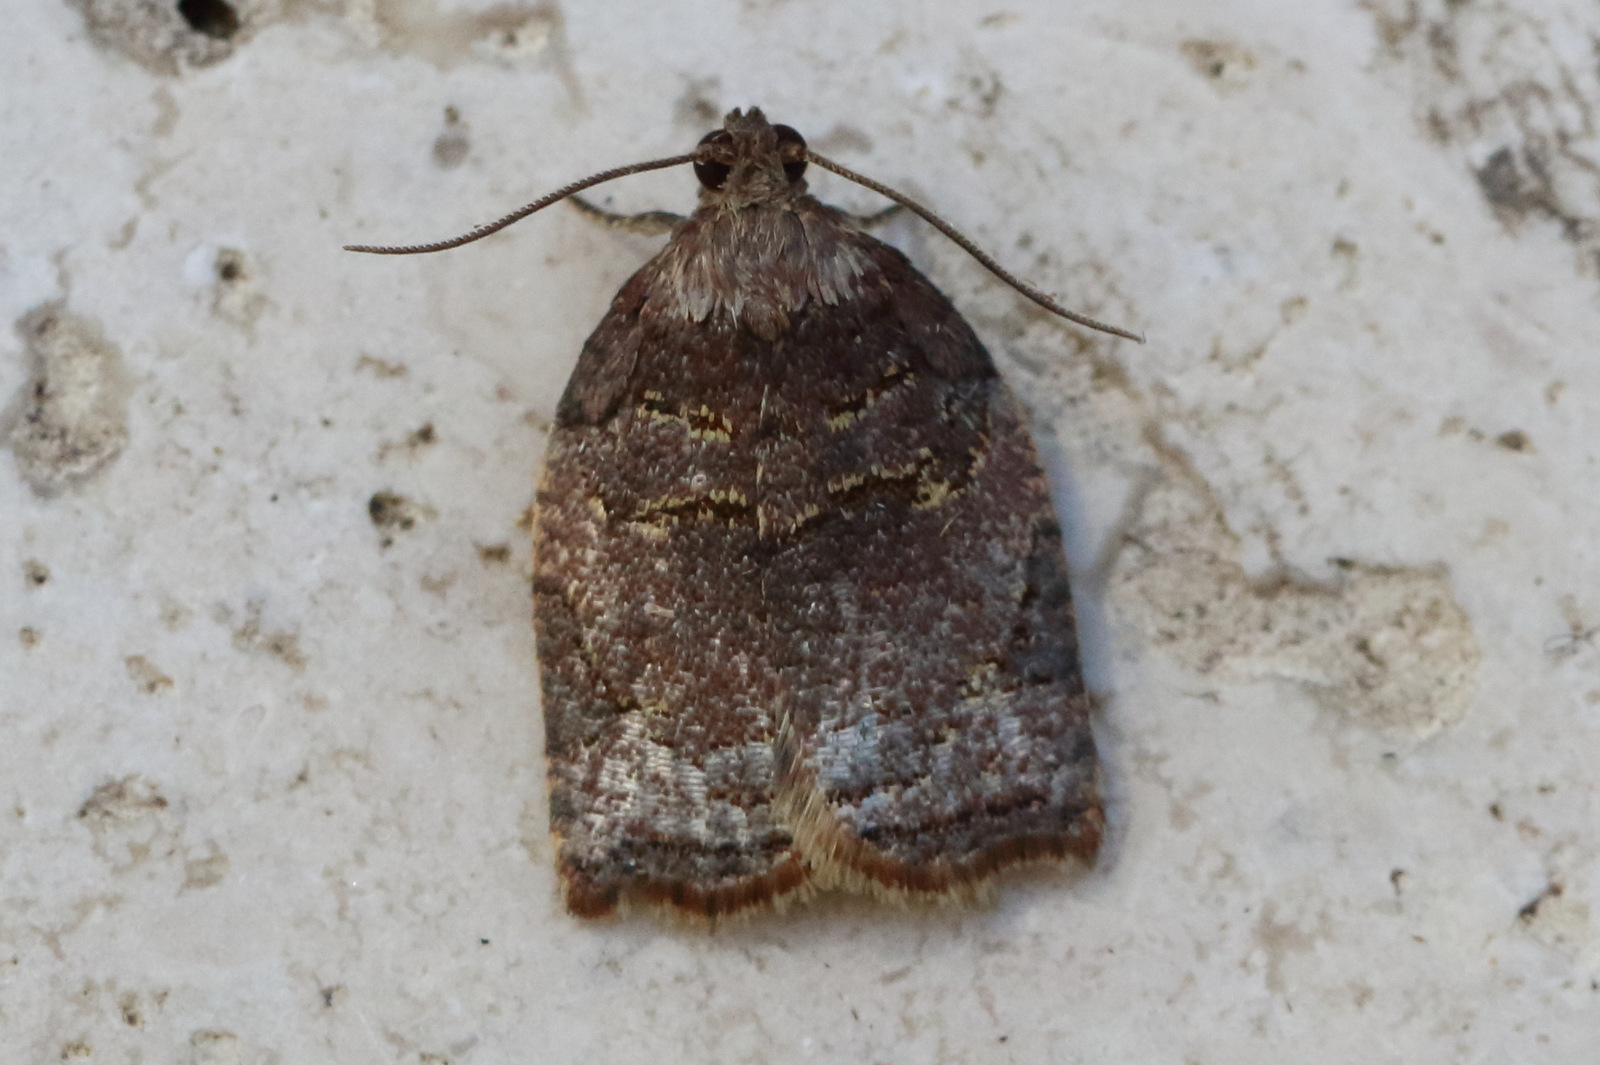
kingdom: Animalia
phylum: Arthropoda
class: Insecta
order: Lepidoptera
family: Tortricidae
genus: Anisogona
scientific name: Anisogona simana
